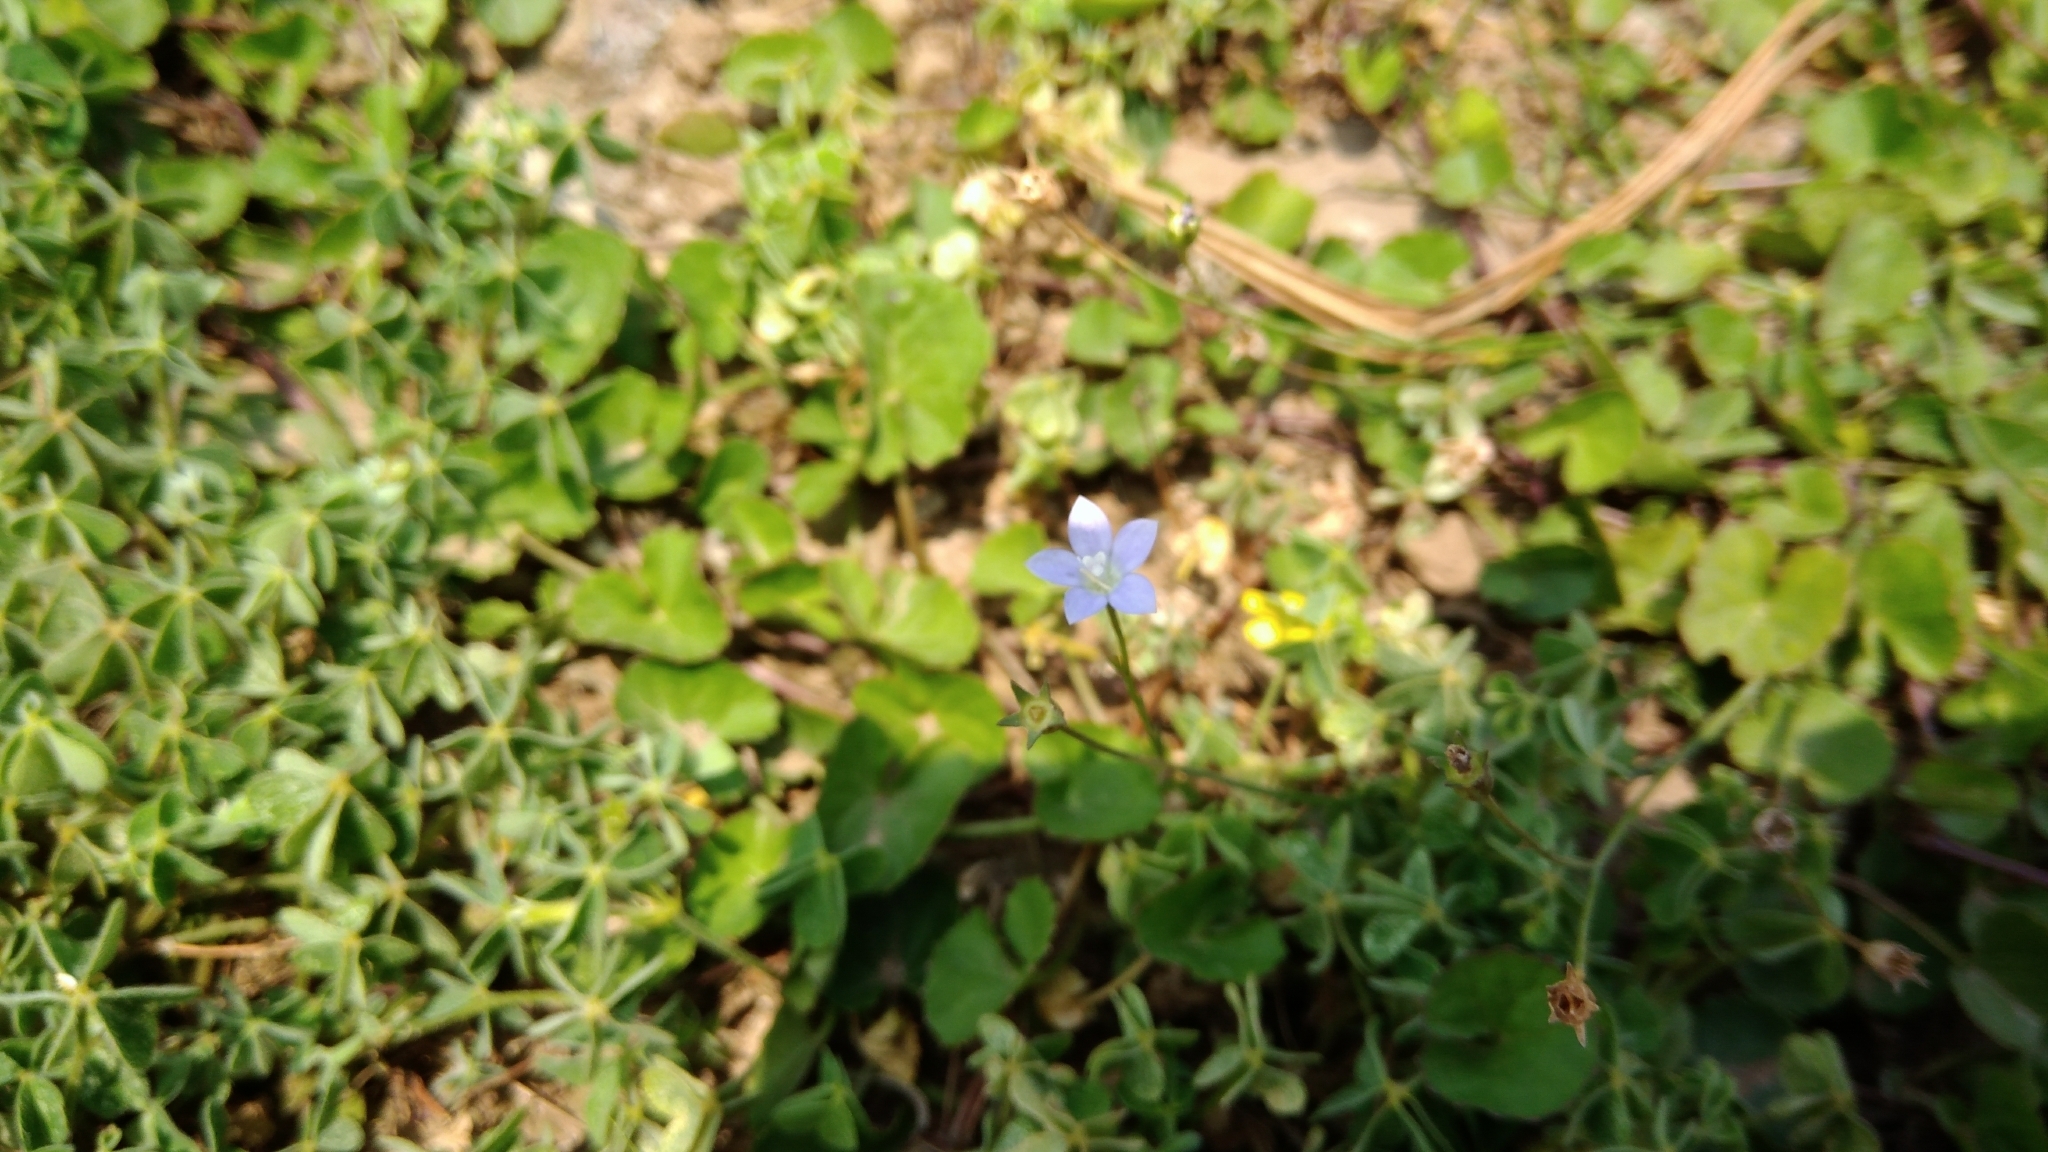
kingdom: Plantae
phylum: Tracheophyta
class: Magnoliopsida
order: Asterales
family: Campanulaceae
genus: Wahlenbergia
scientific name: Wahlenbergia marginata
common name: Southern rockbell
